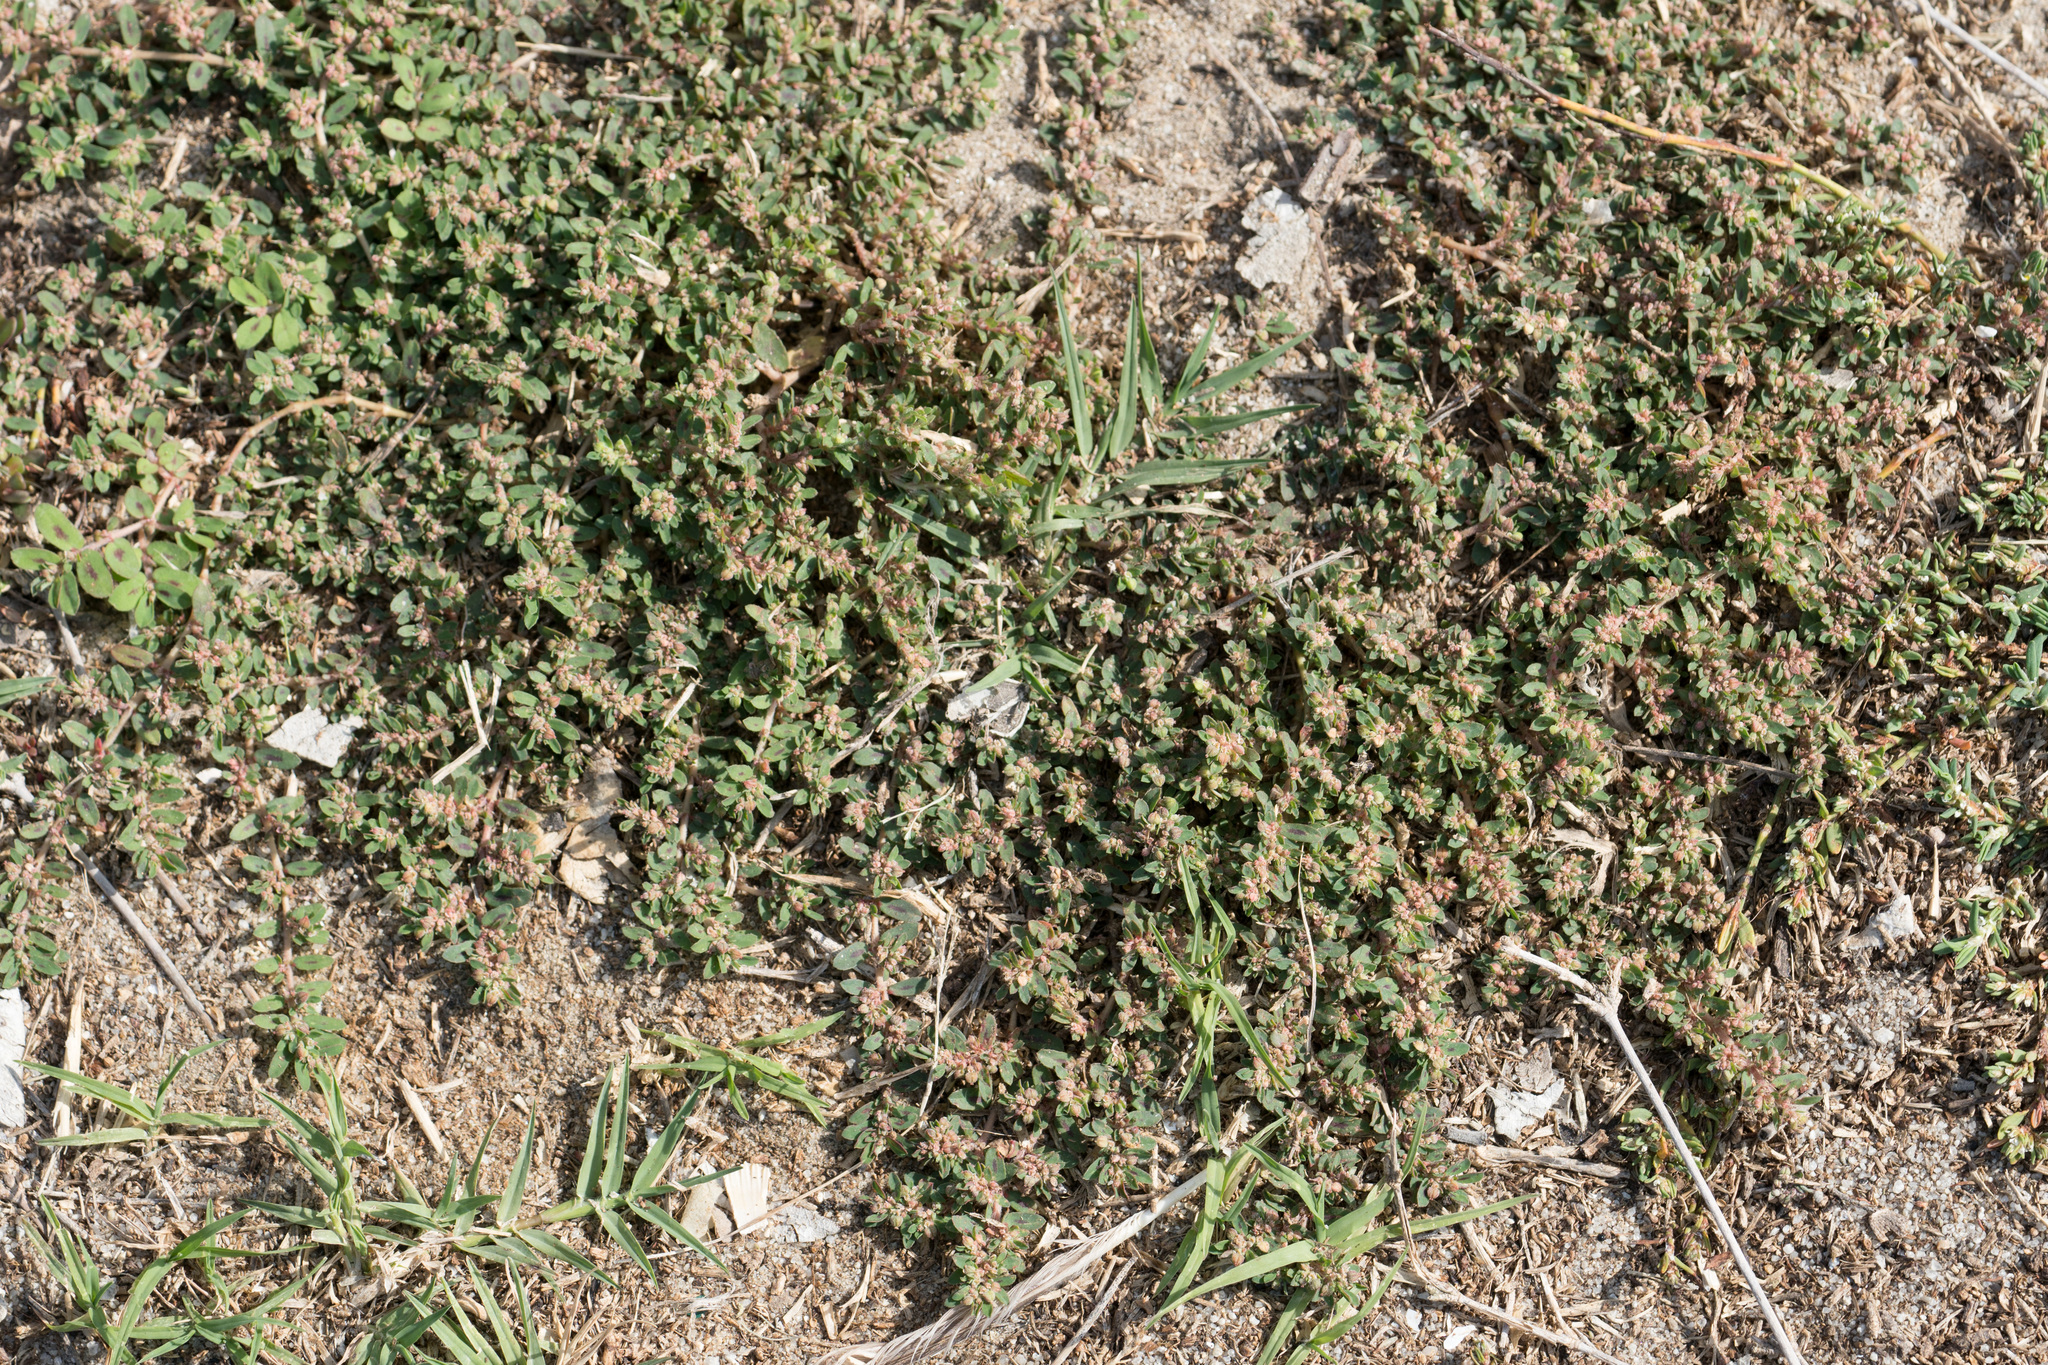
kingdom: Plantae
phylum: Tracheophyta
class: Magnoliopsida
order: Malpighiales
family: Euphorbiaceae
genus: Euphorbia
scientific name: Euphorbia maculata
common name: Spotted spurge
